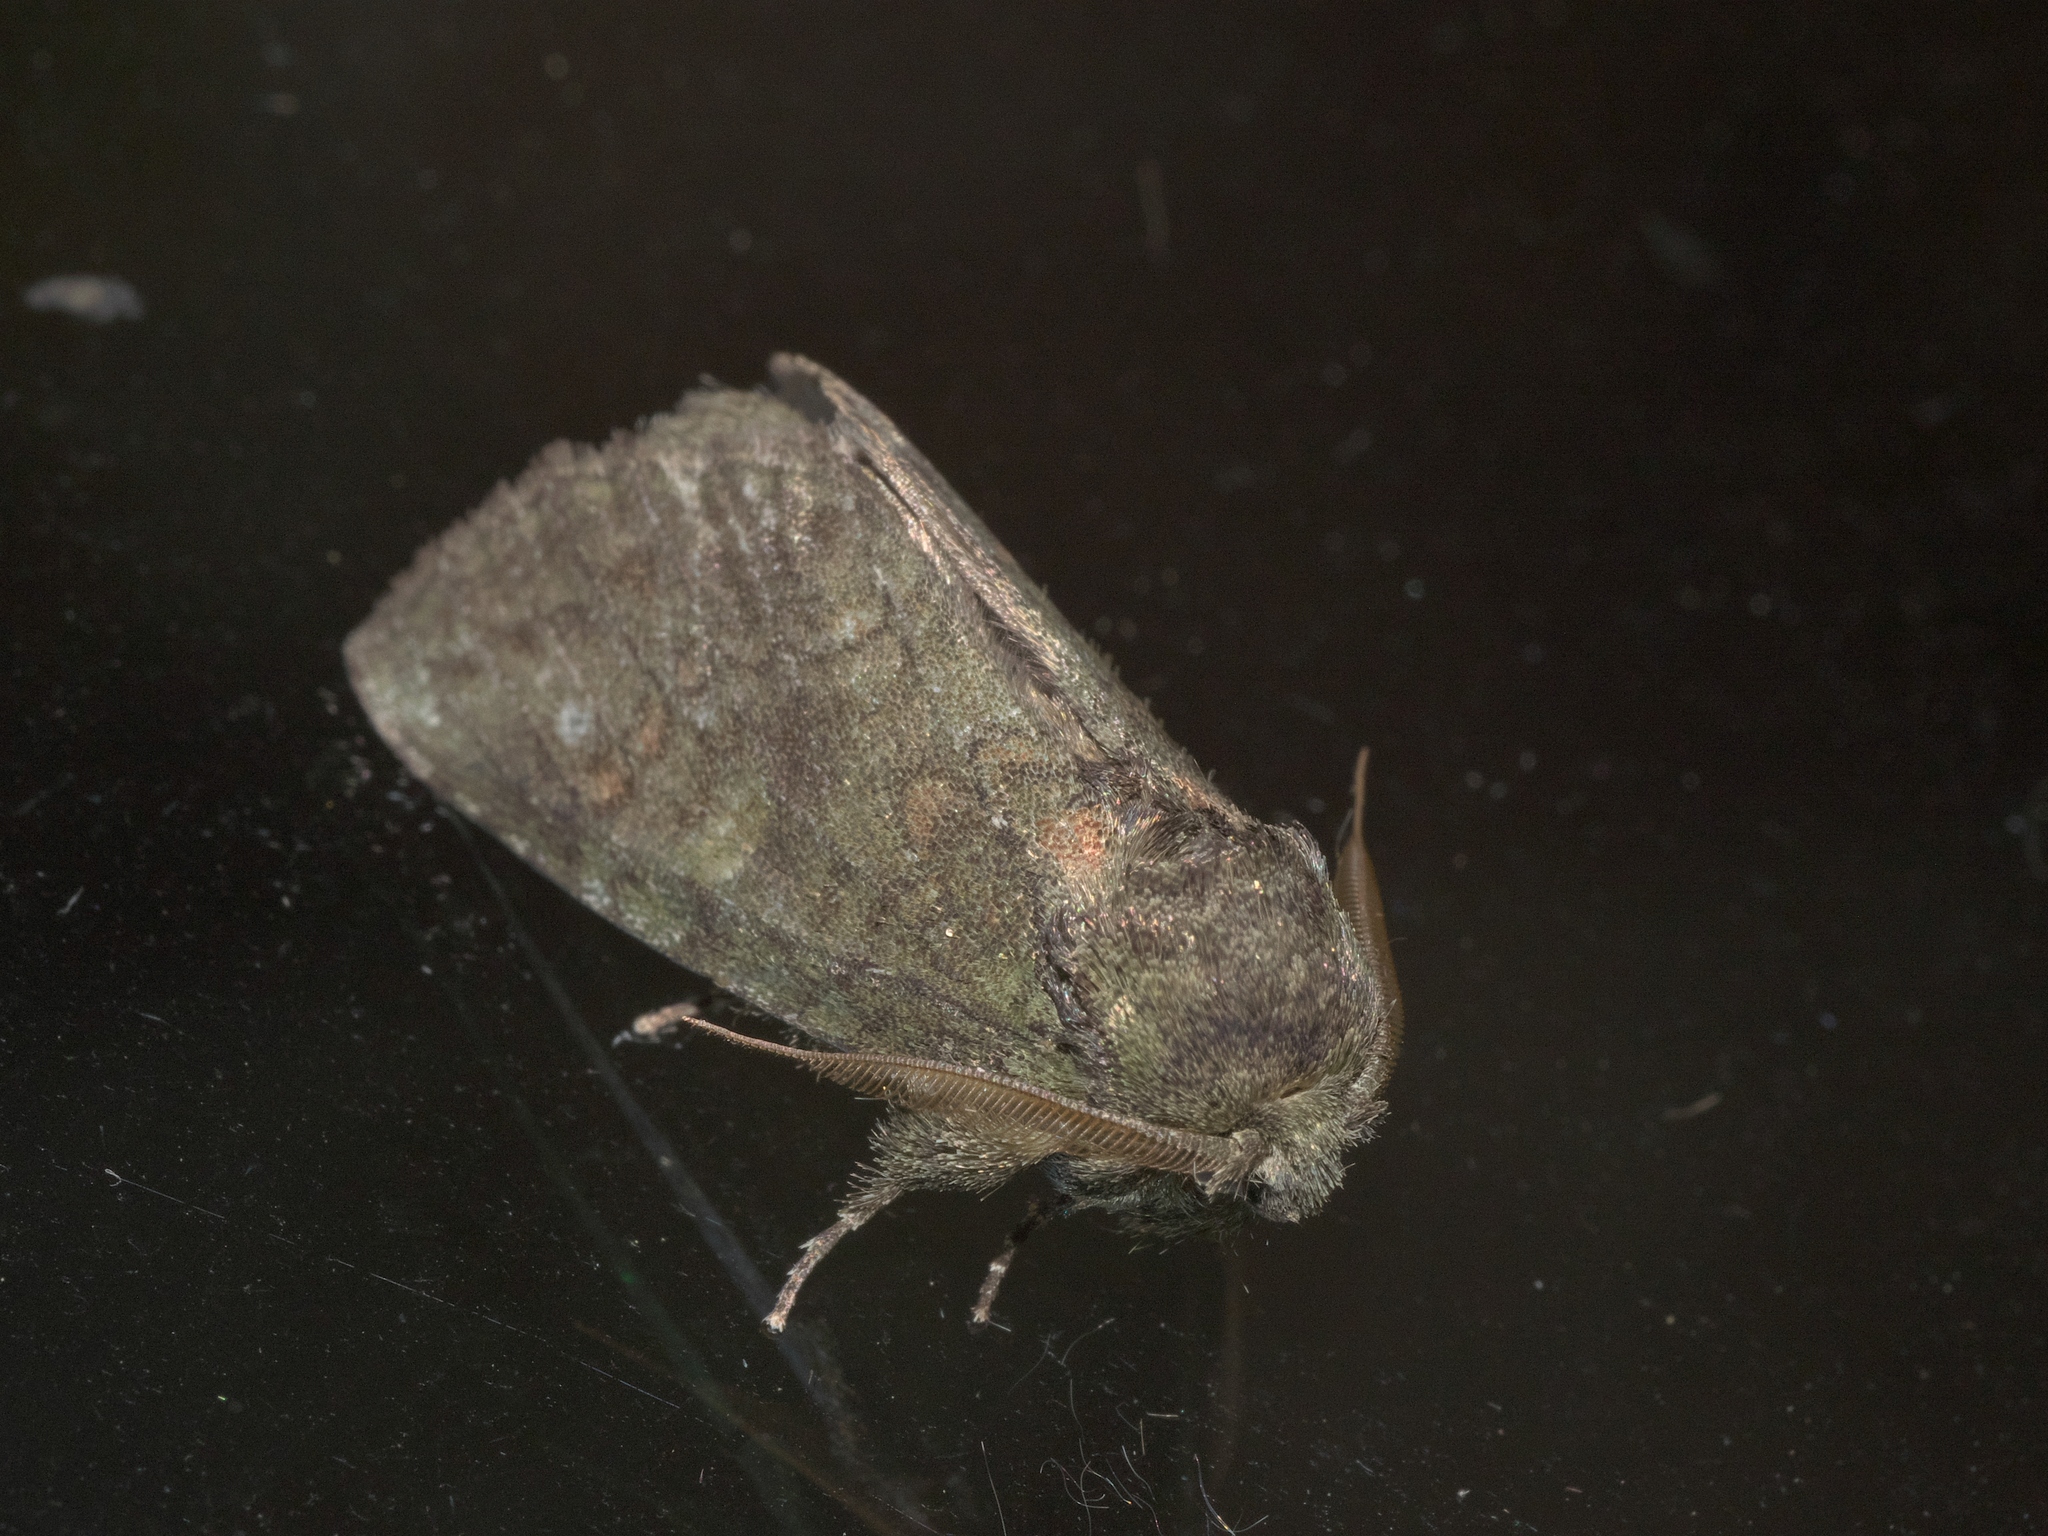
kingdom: Animalia
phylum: Arthropoda
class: Insecta
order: Lepidoptera
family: Notodontidae
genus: Disphragis
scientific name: Disphragis Cecrita guttivitta
